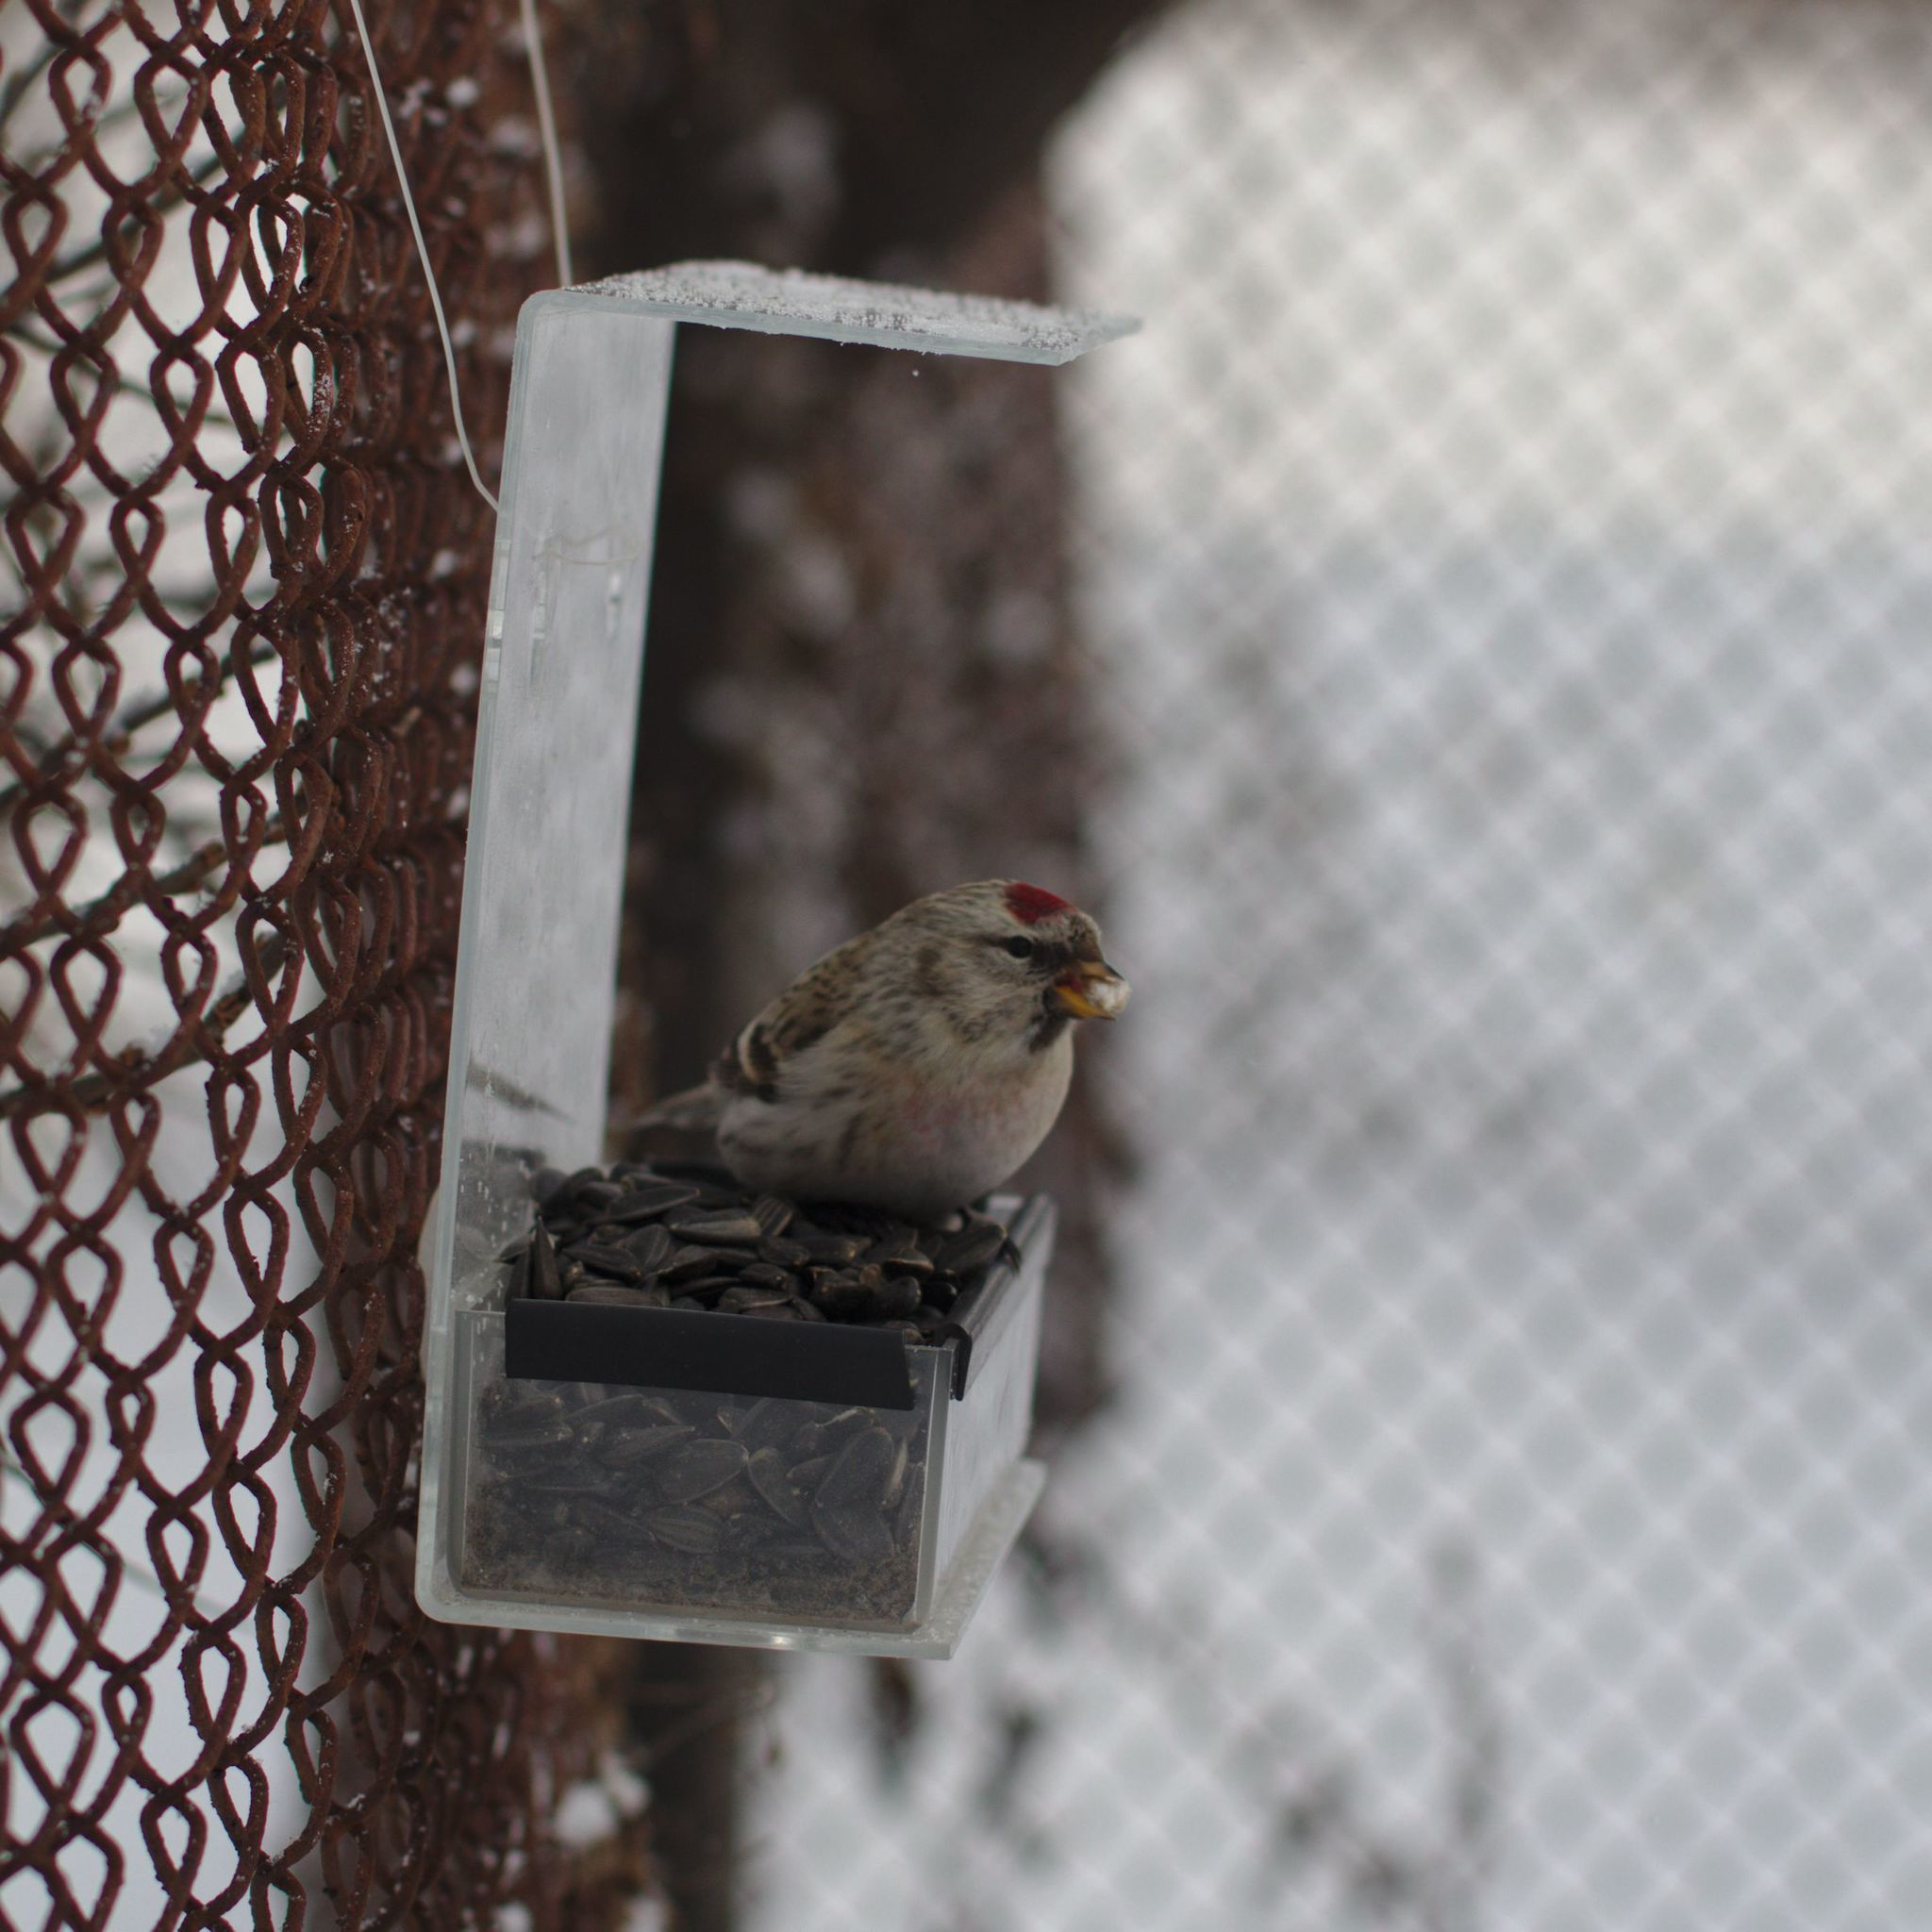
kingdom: Animalia
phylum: Chordata
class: Aves
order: Passeriformes
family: Fringillidae
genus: Acanthis
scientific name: Acanthis flammea
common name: Common redpoll
